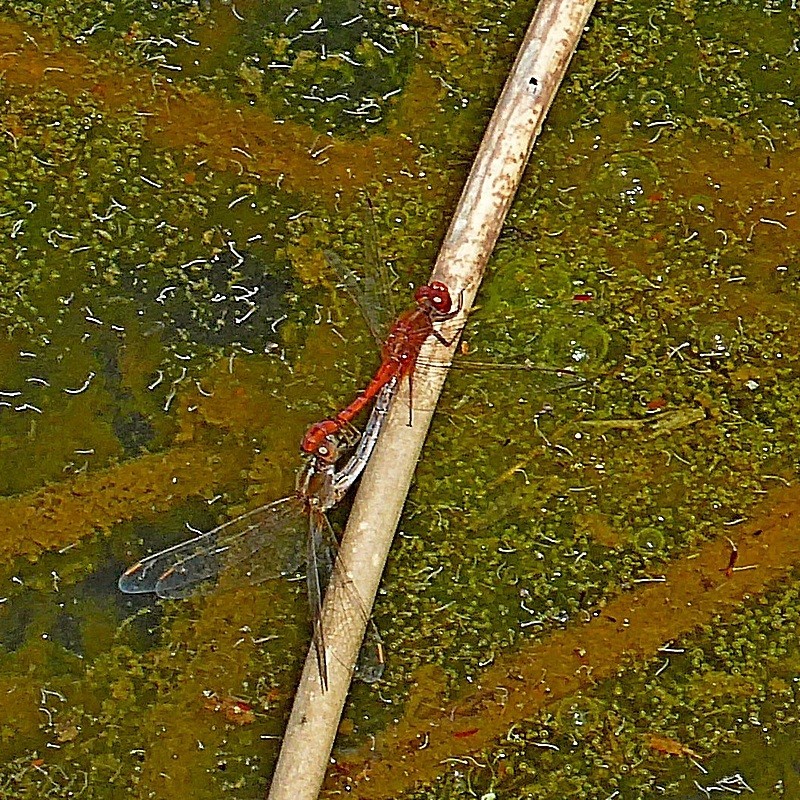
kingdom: Animalia
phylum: Arthropoda
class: Insecta
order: Odonata
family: Libellulidae
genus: Diplacodes
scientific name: Diplacodes bipunctata
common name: Red percher dragonfly
